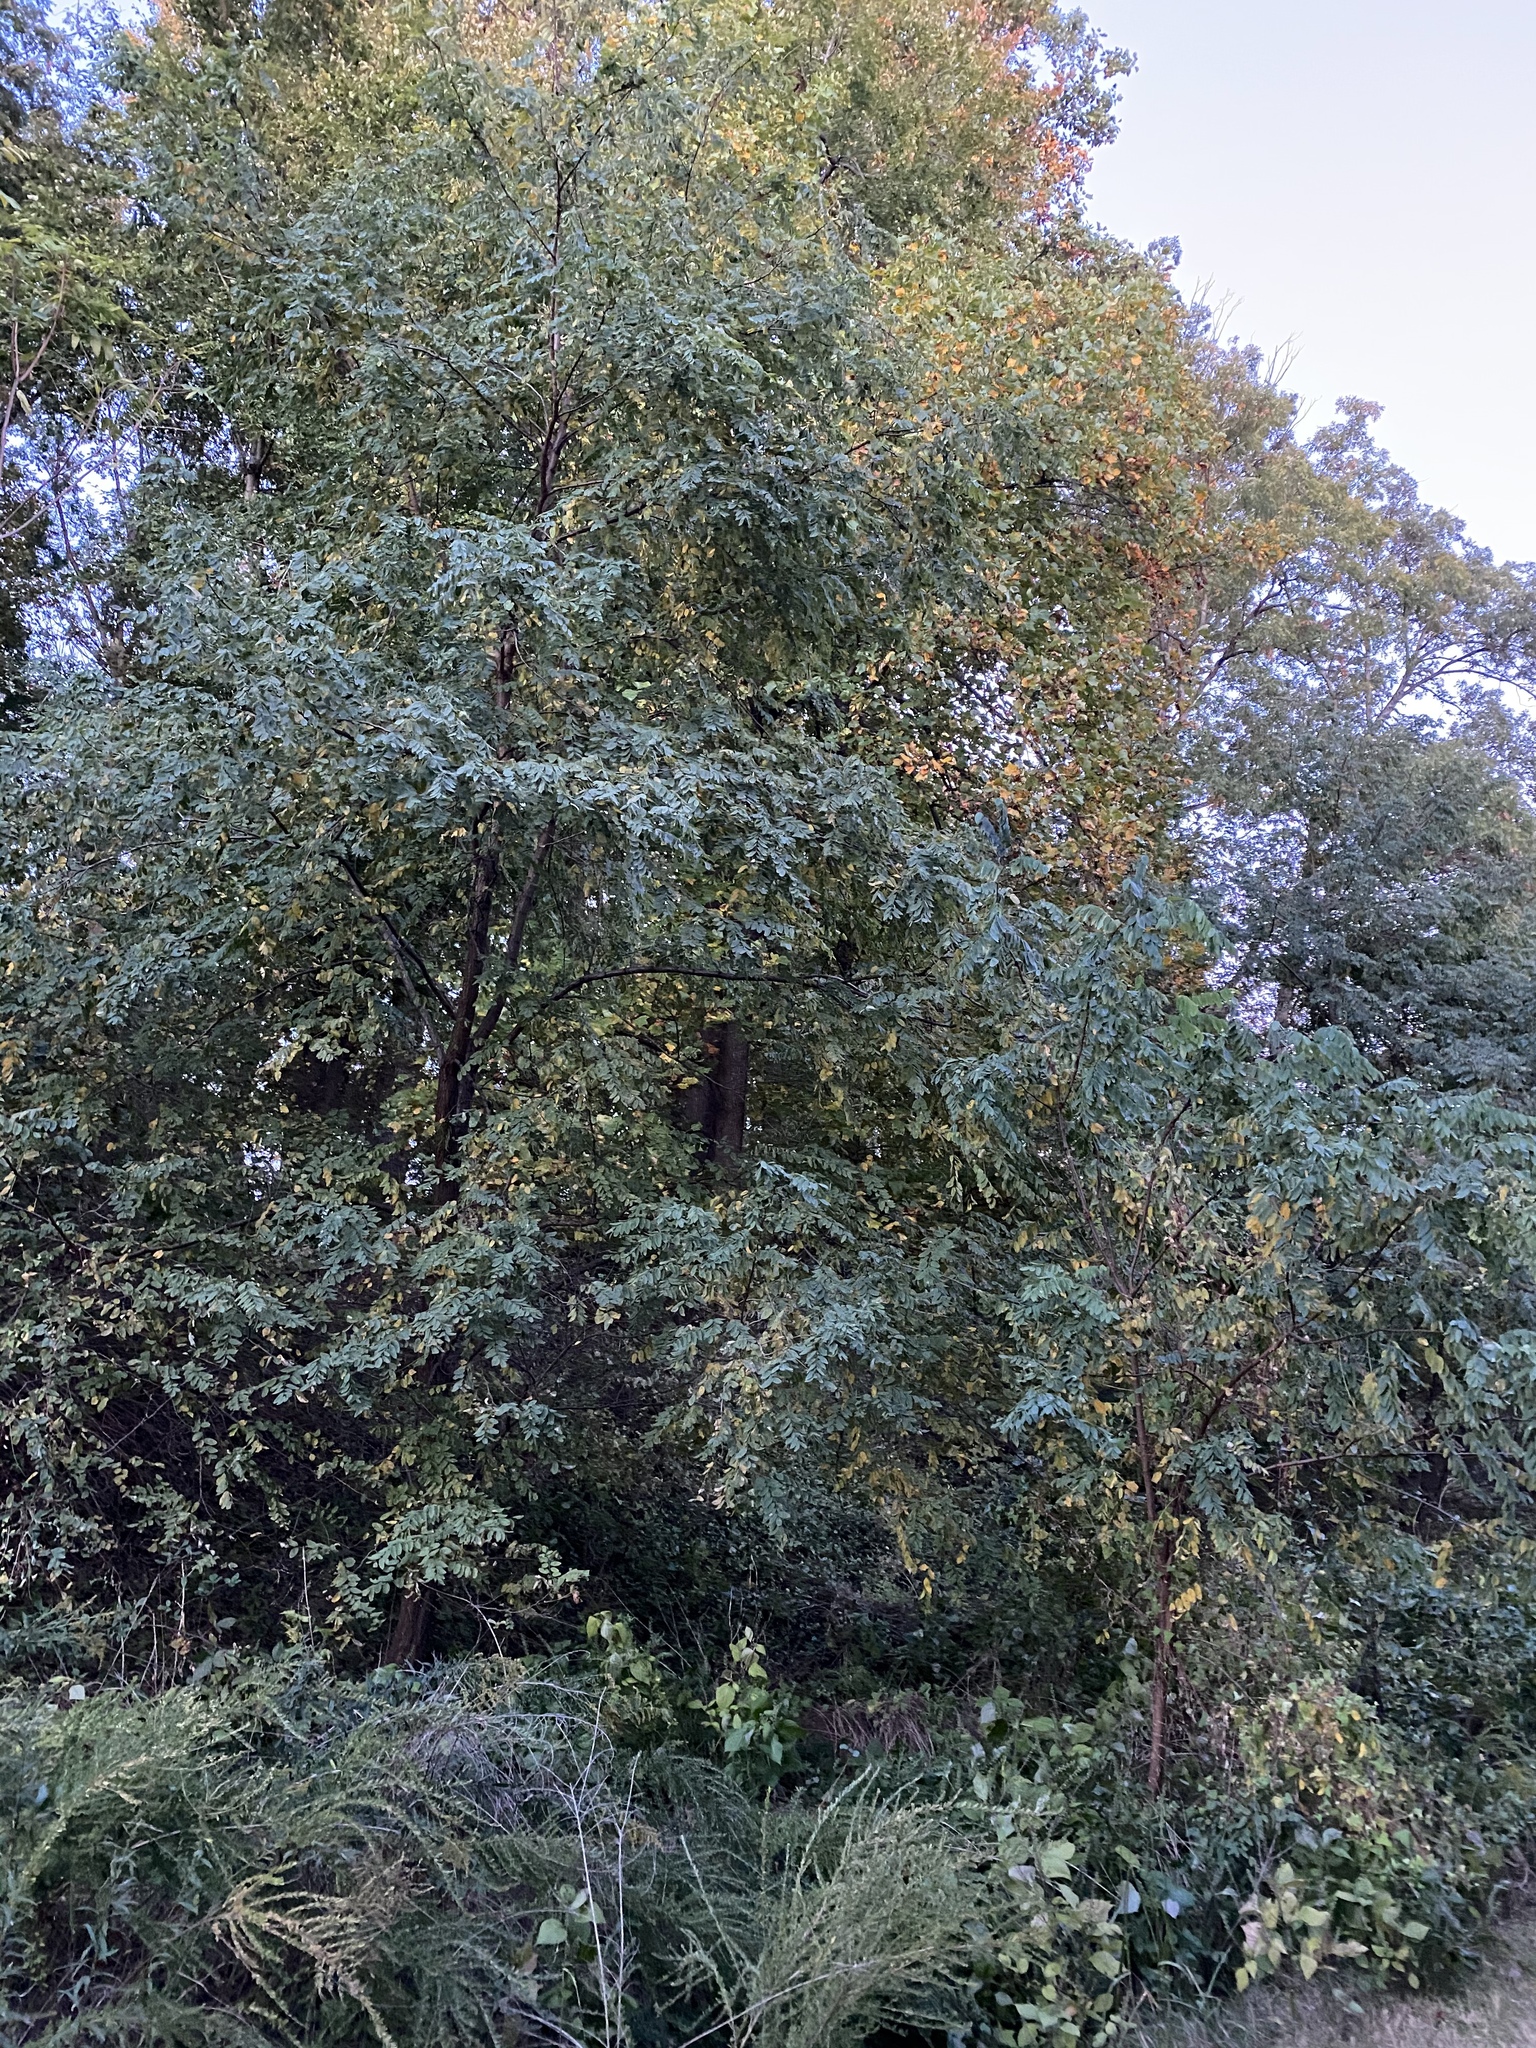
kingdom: Plantae
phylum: Tracheophyta
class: Magnoliopsida
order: Fabales
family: Fabaceae
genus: Robinia
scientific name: Robinia pseudoacacia
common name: Black locust
